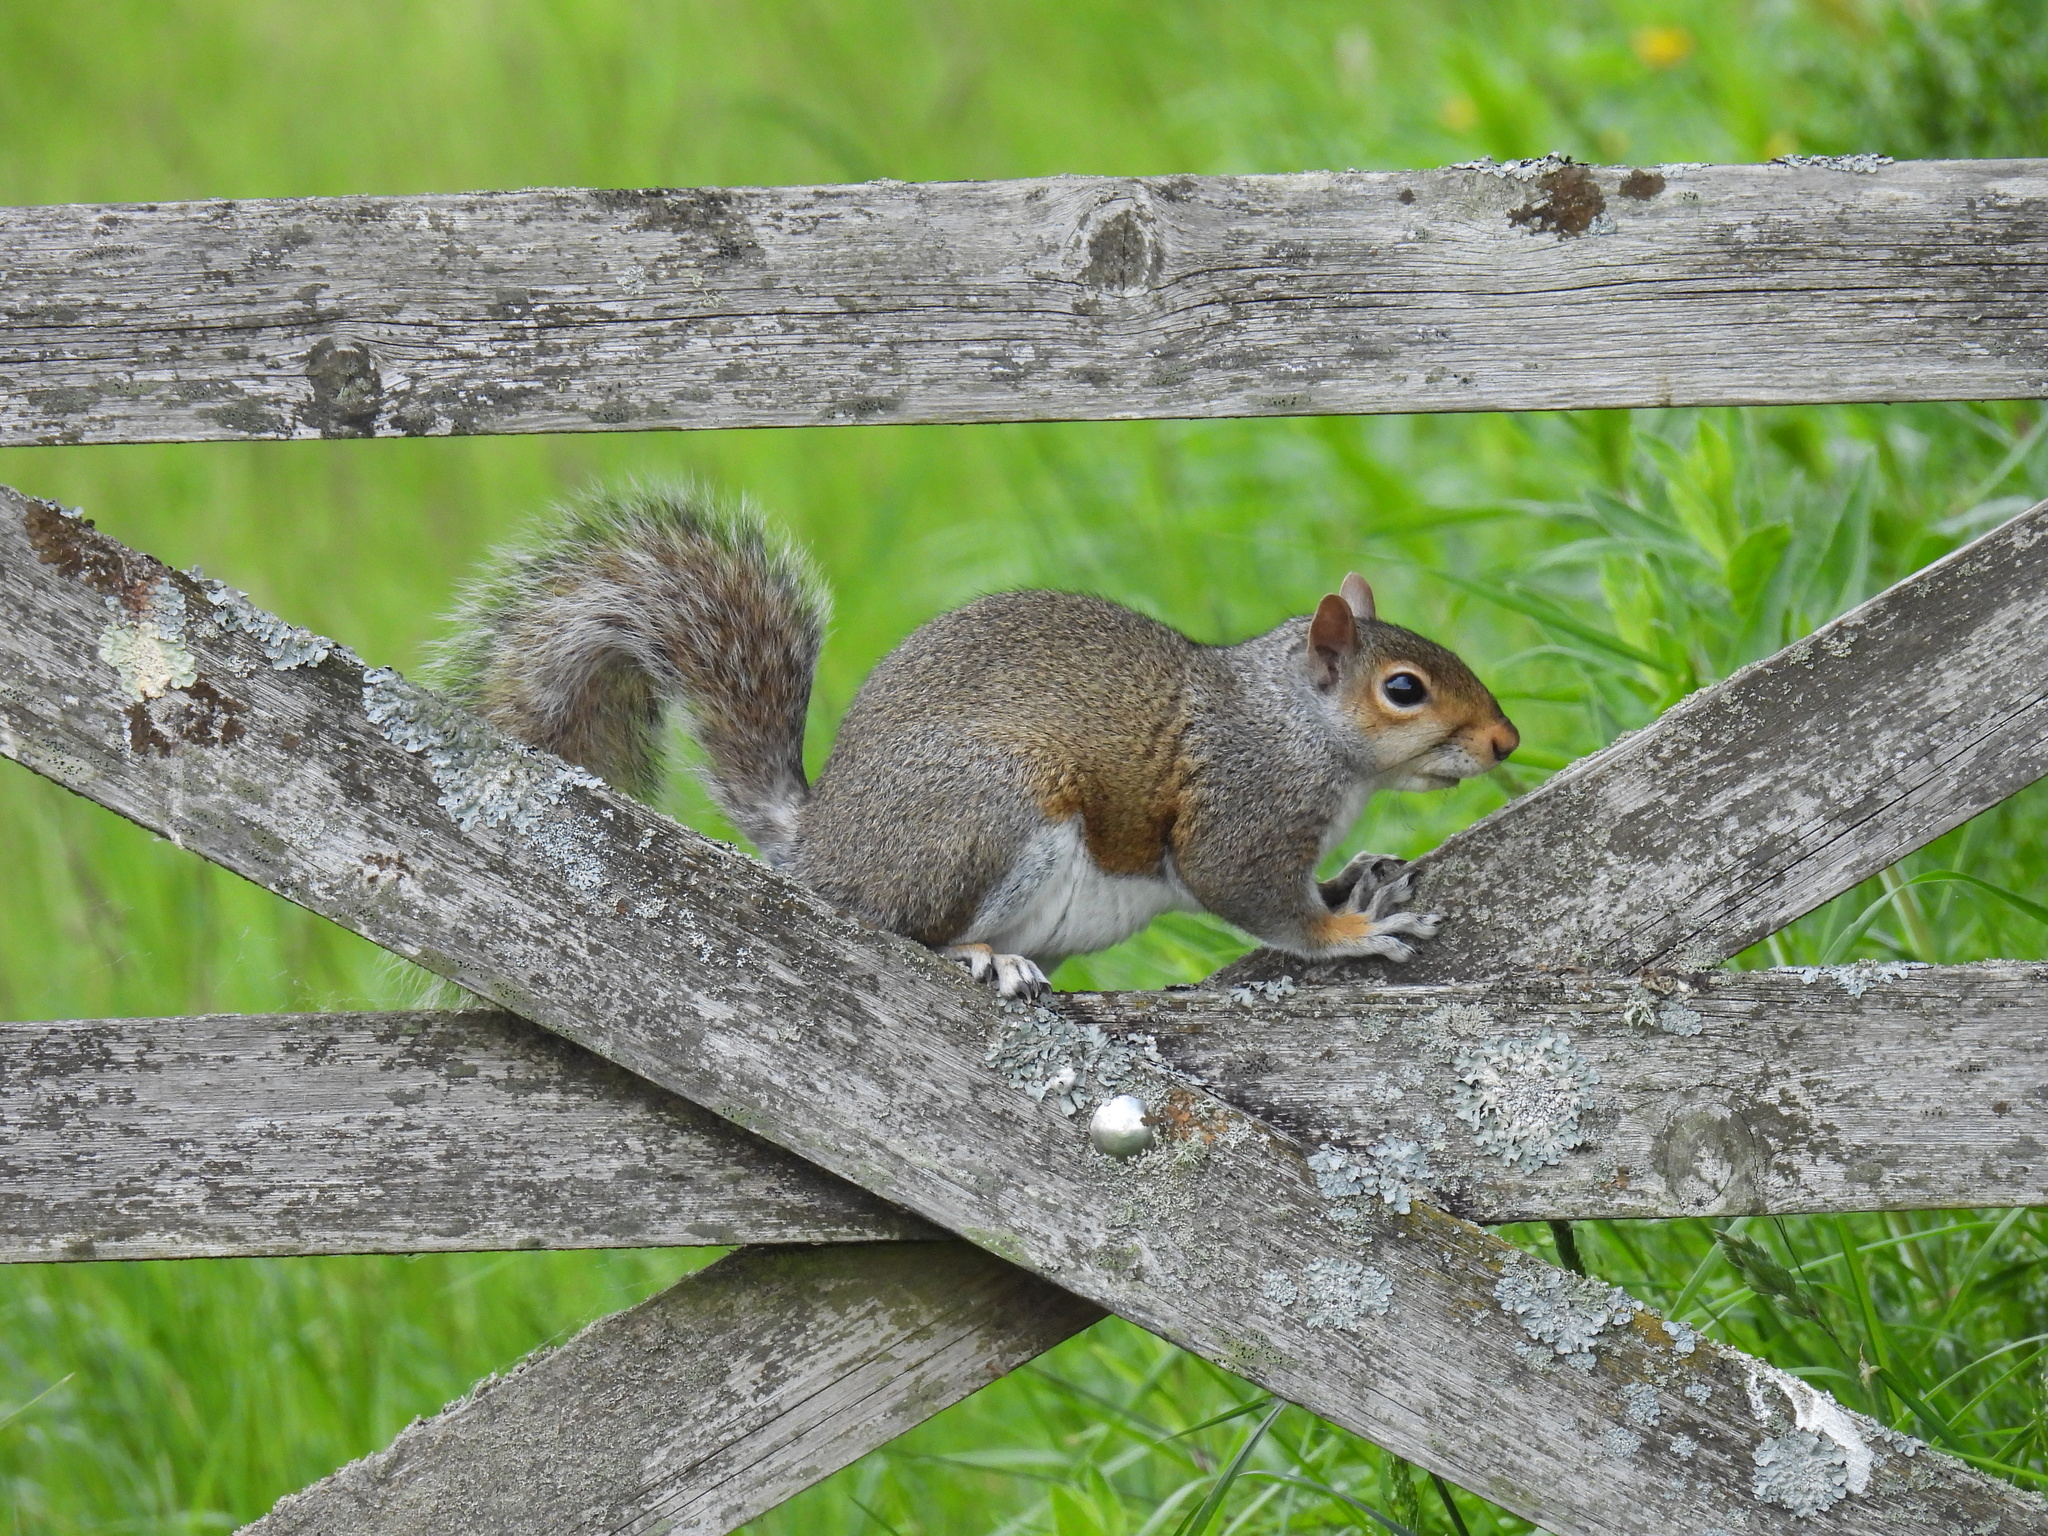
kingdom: Animalia
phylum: Chordata
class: Mammalia
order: Rodentia
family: Sciuridae
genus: Sciurus
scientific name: Sciurus carolinensis
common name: Eastern gray squirrel
